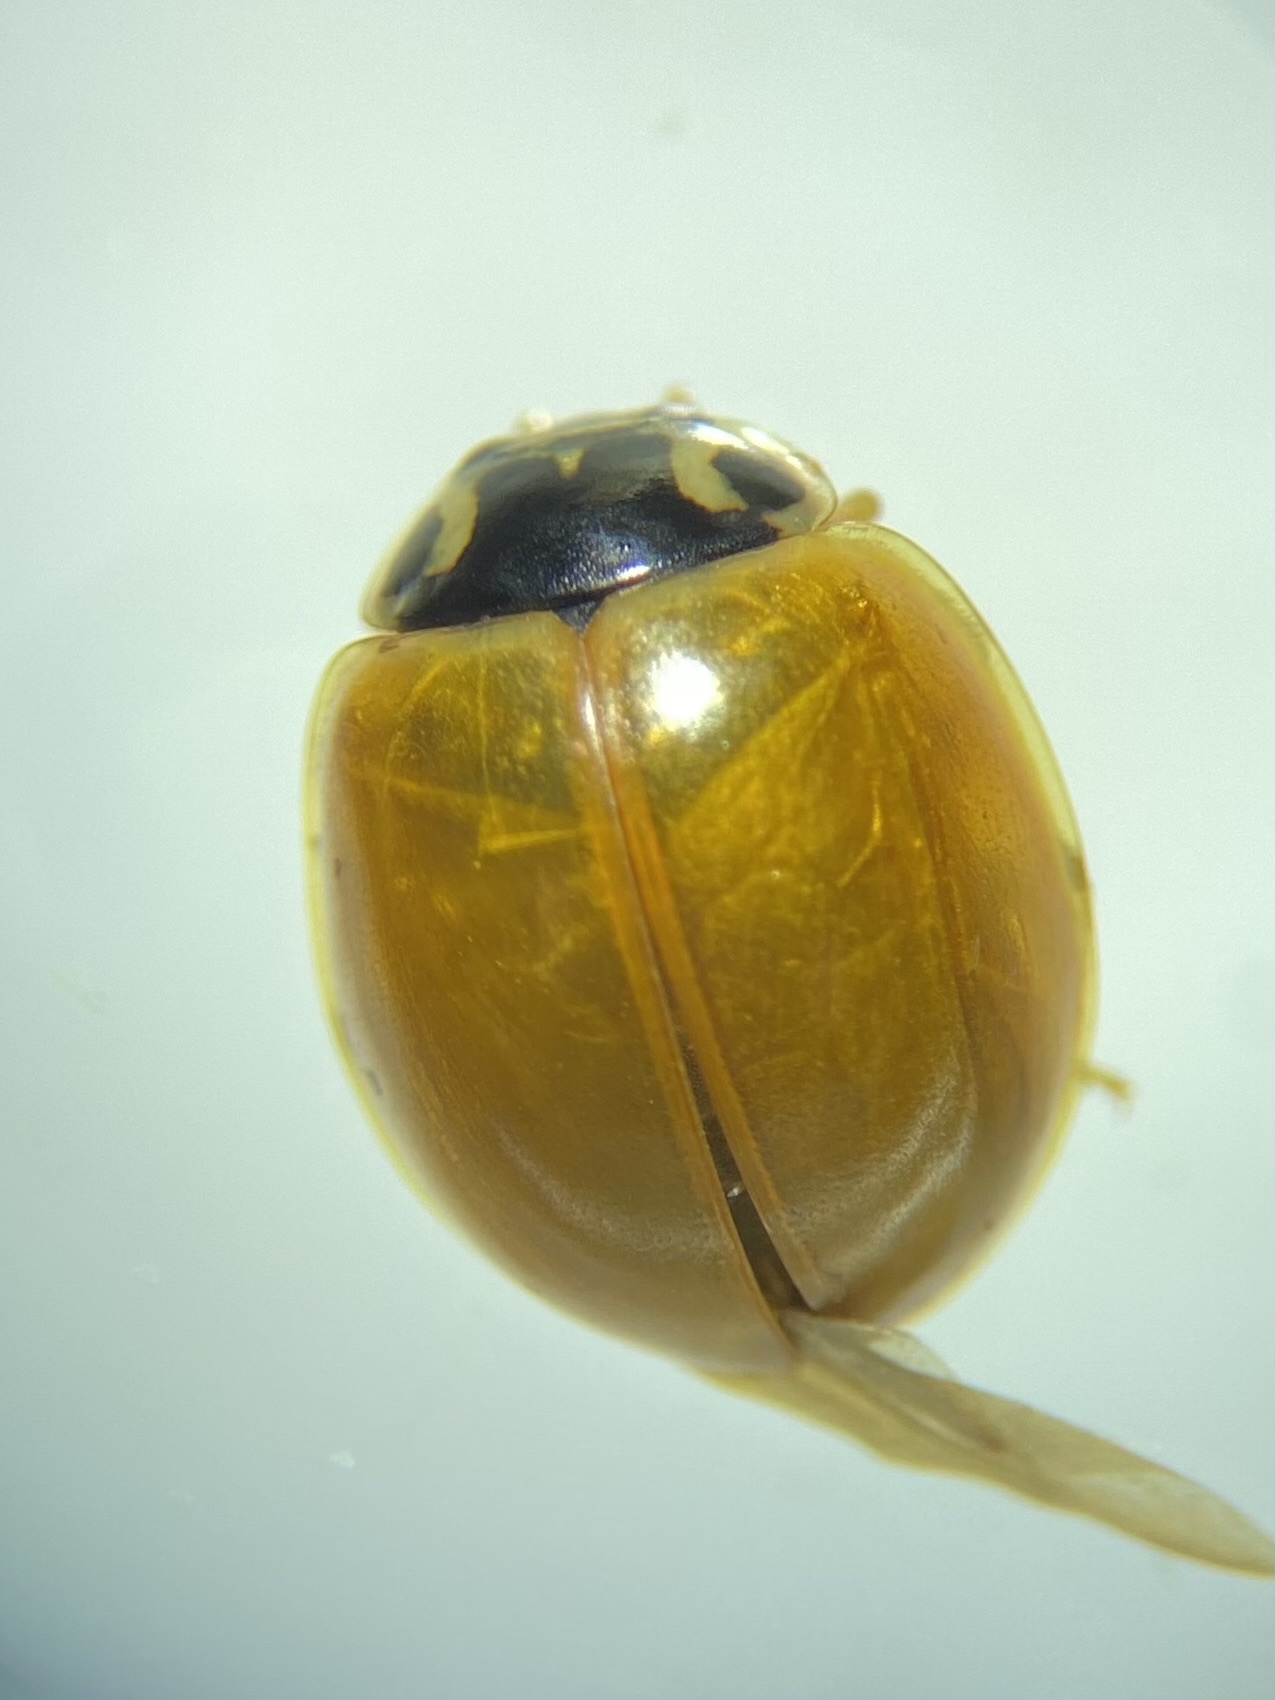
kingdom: Animalia
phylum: Arthropoda
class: Insecta
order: Coleoptera
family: Coccinellidae
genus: Cycloneda
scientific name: Cycloneda munda
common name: Polished lady beetle
